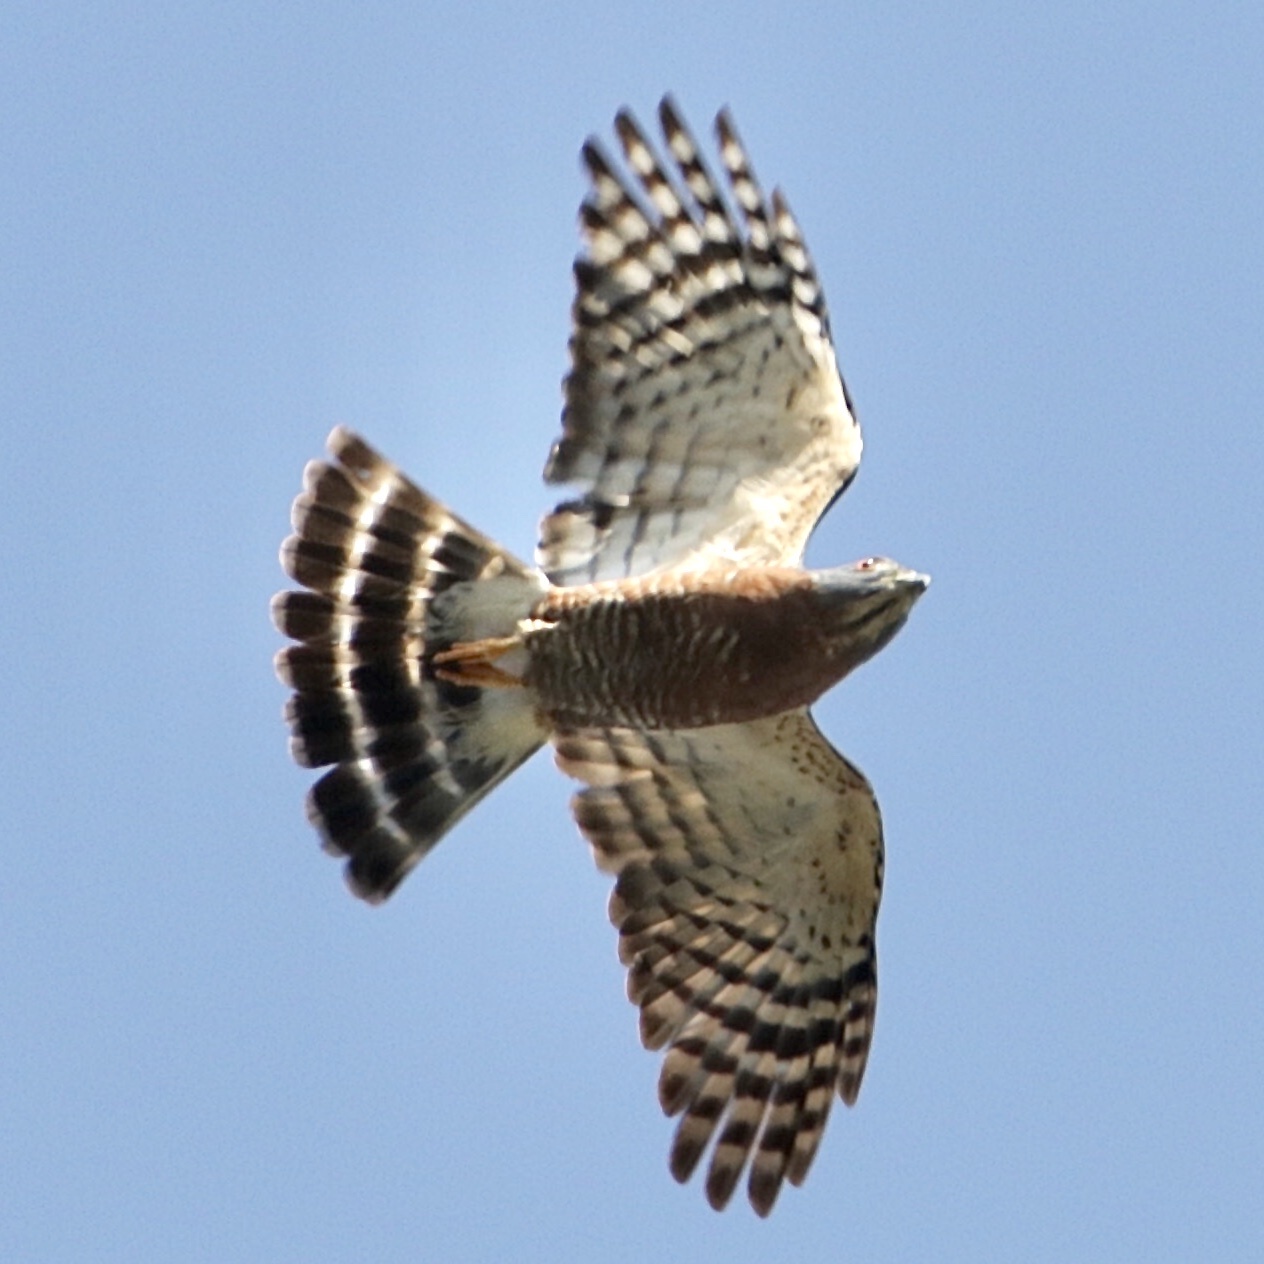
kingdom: Animalia
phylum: Chordata
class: Aves
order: Accipitriformes
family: Accipitridae
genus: Harpagus
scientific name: Harpagus bidentatus
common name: Double-toothed kite
